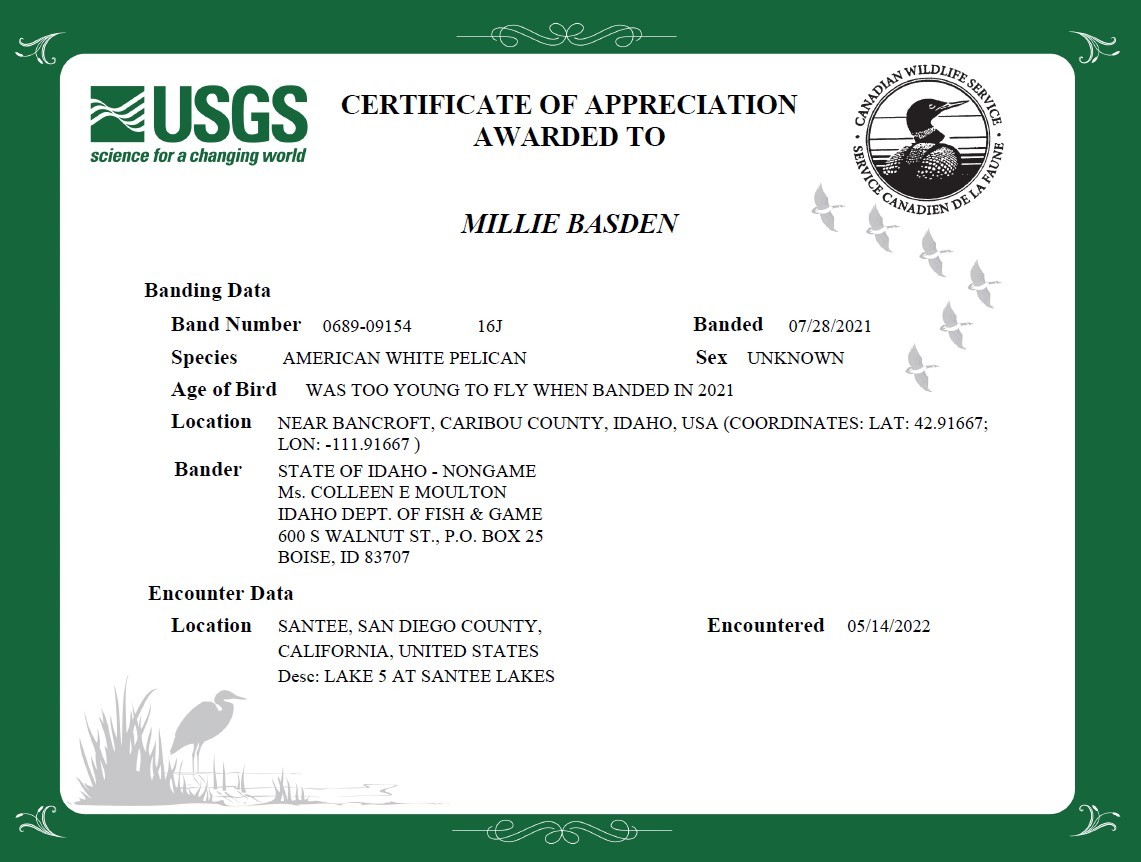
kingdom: Animalia
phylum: Chordata
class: Aves
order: Pelecaniformes
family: Pelecanidae
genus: Pelecanus
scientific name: Pelecanus erythrorhynchos
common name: American white pelican
